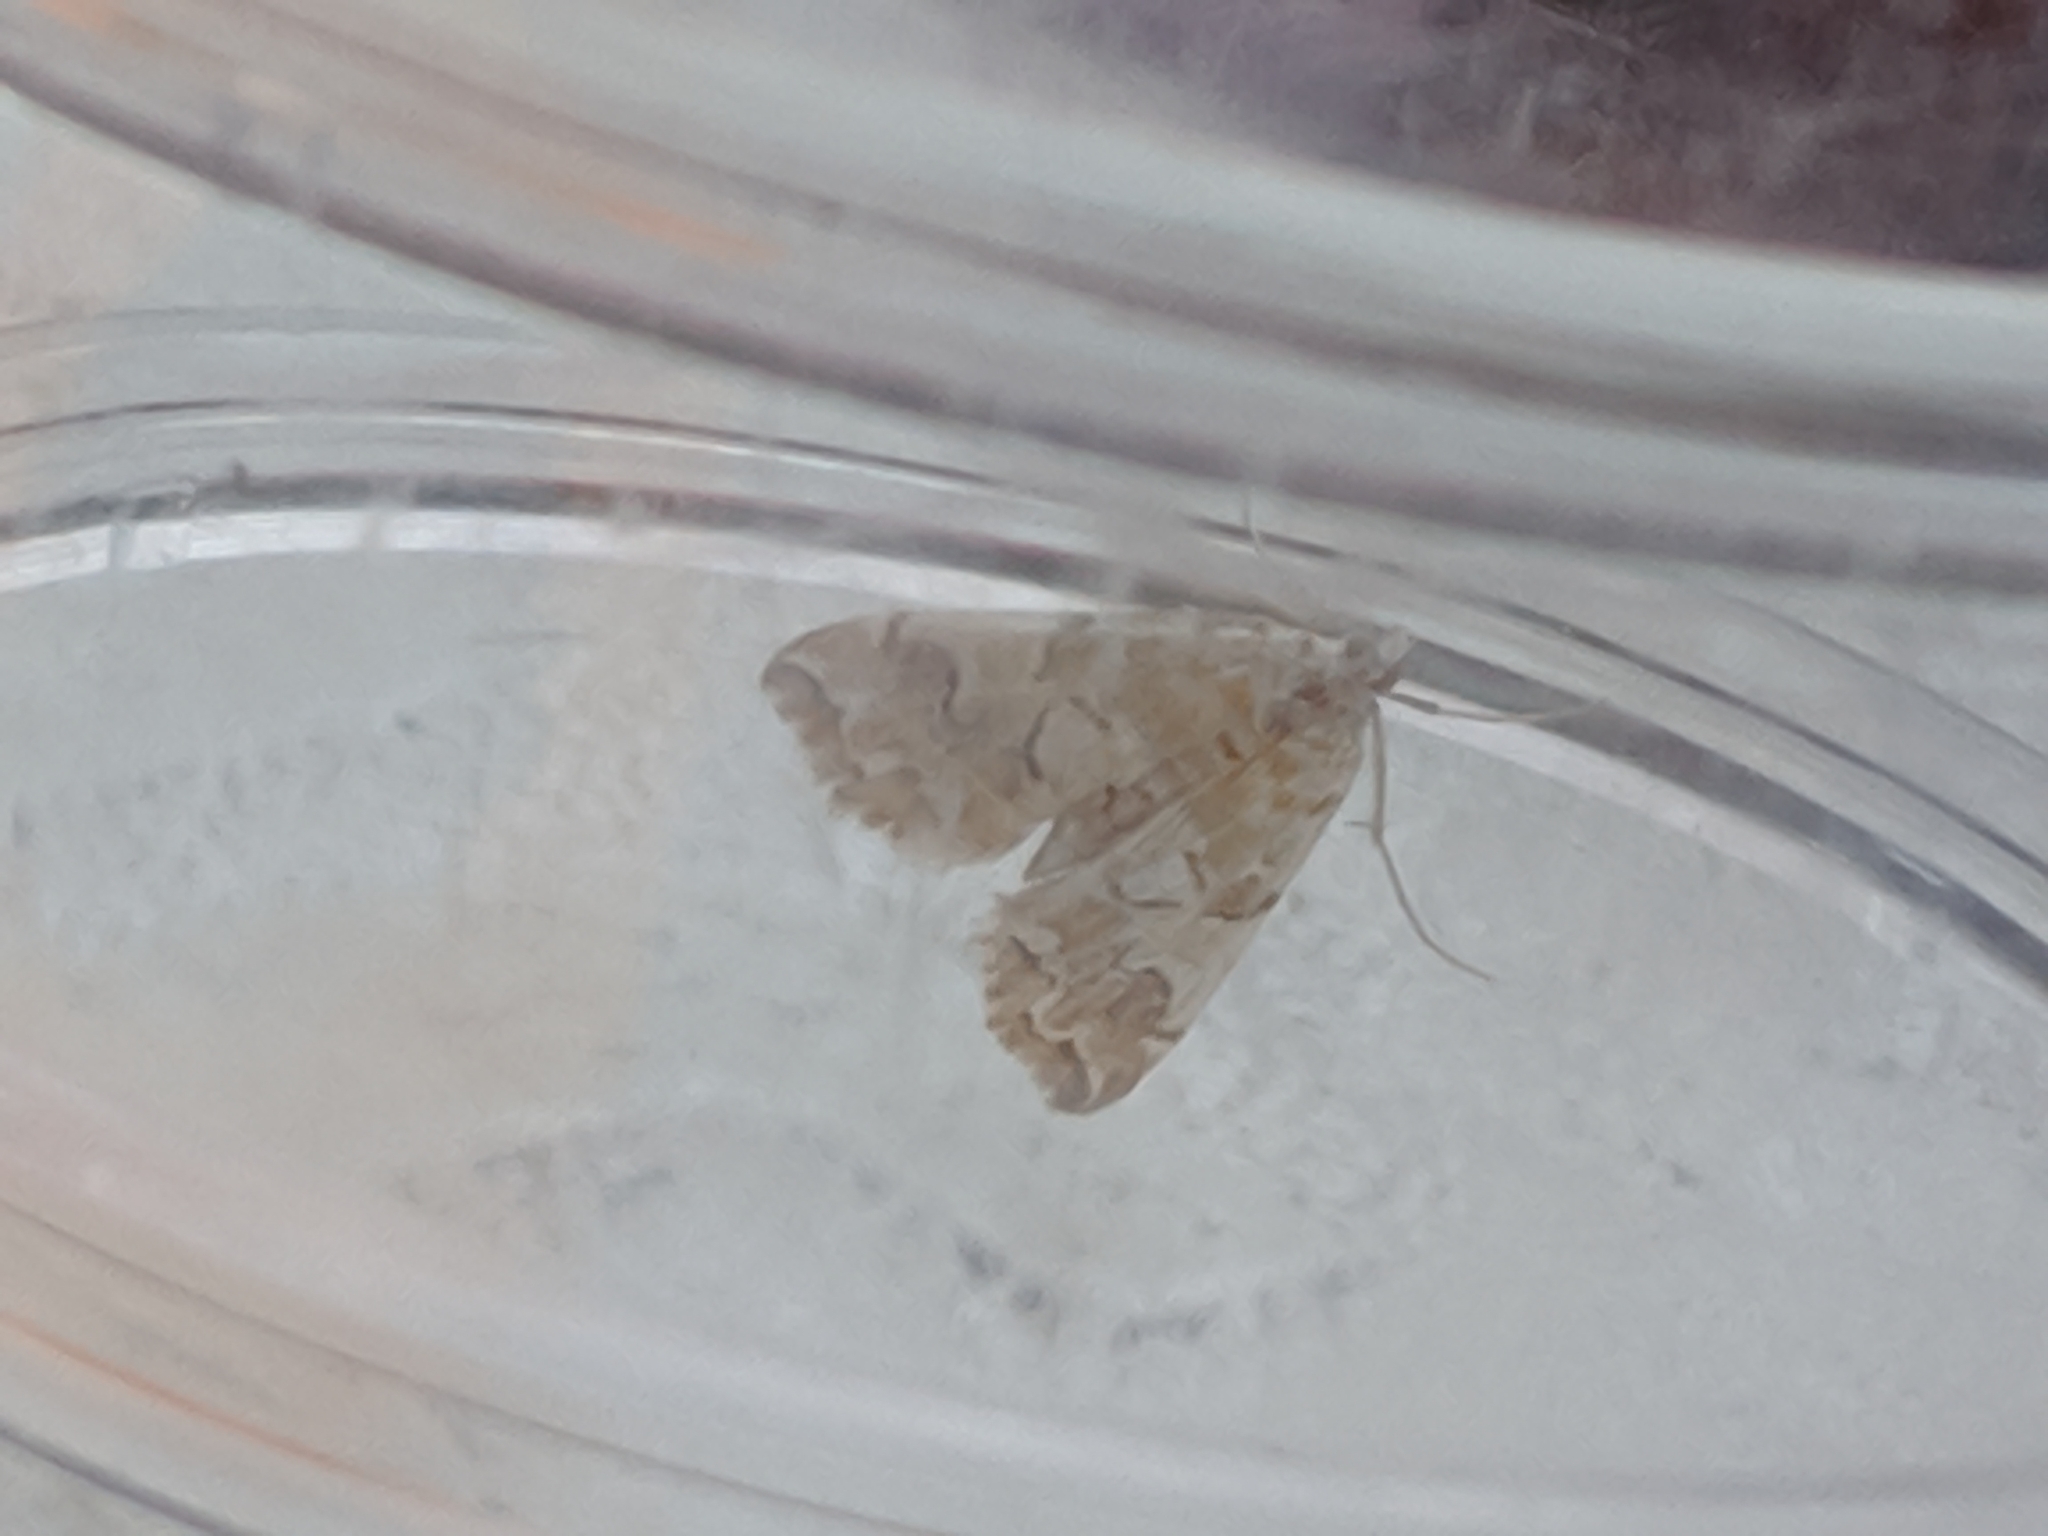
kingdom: Animalia
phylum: Arthropoda
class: Insecta
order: Lepidoptera
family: Crambidae
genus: Elophila
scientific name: Elophila icciusalis
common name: Pondside pyralid moth
